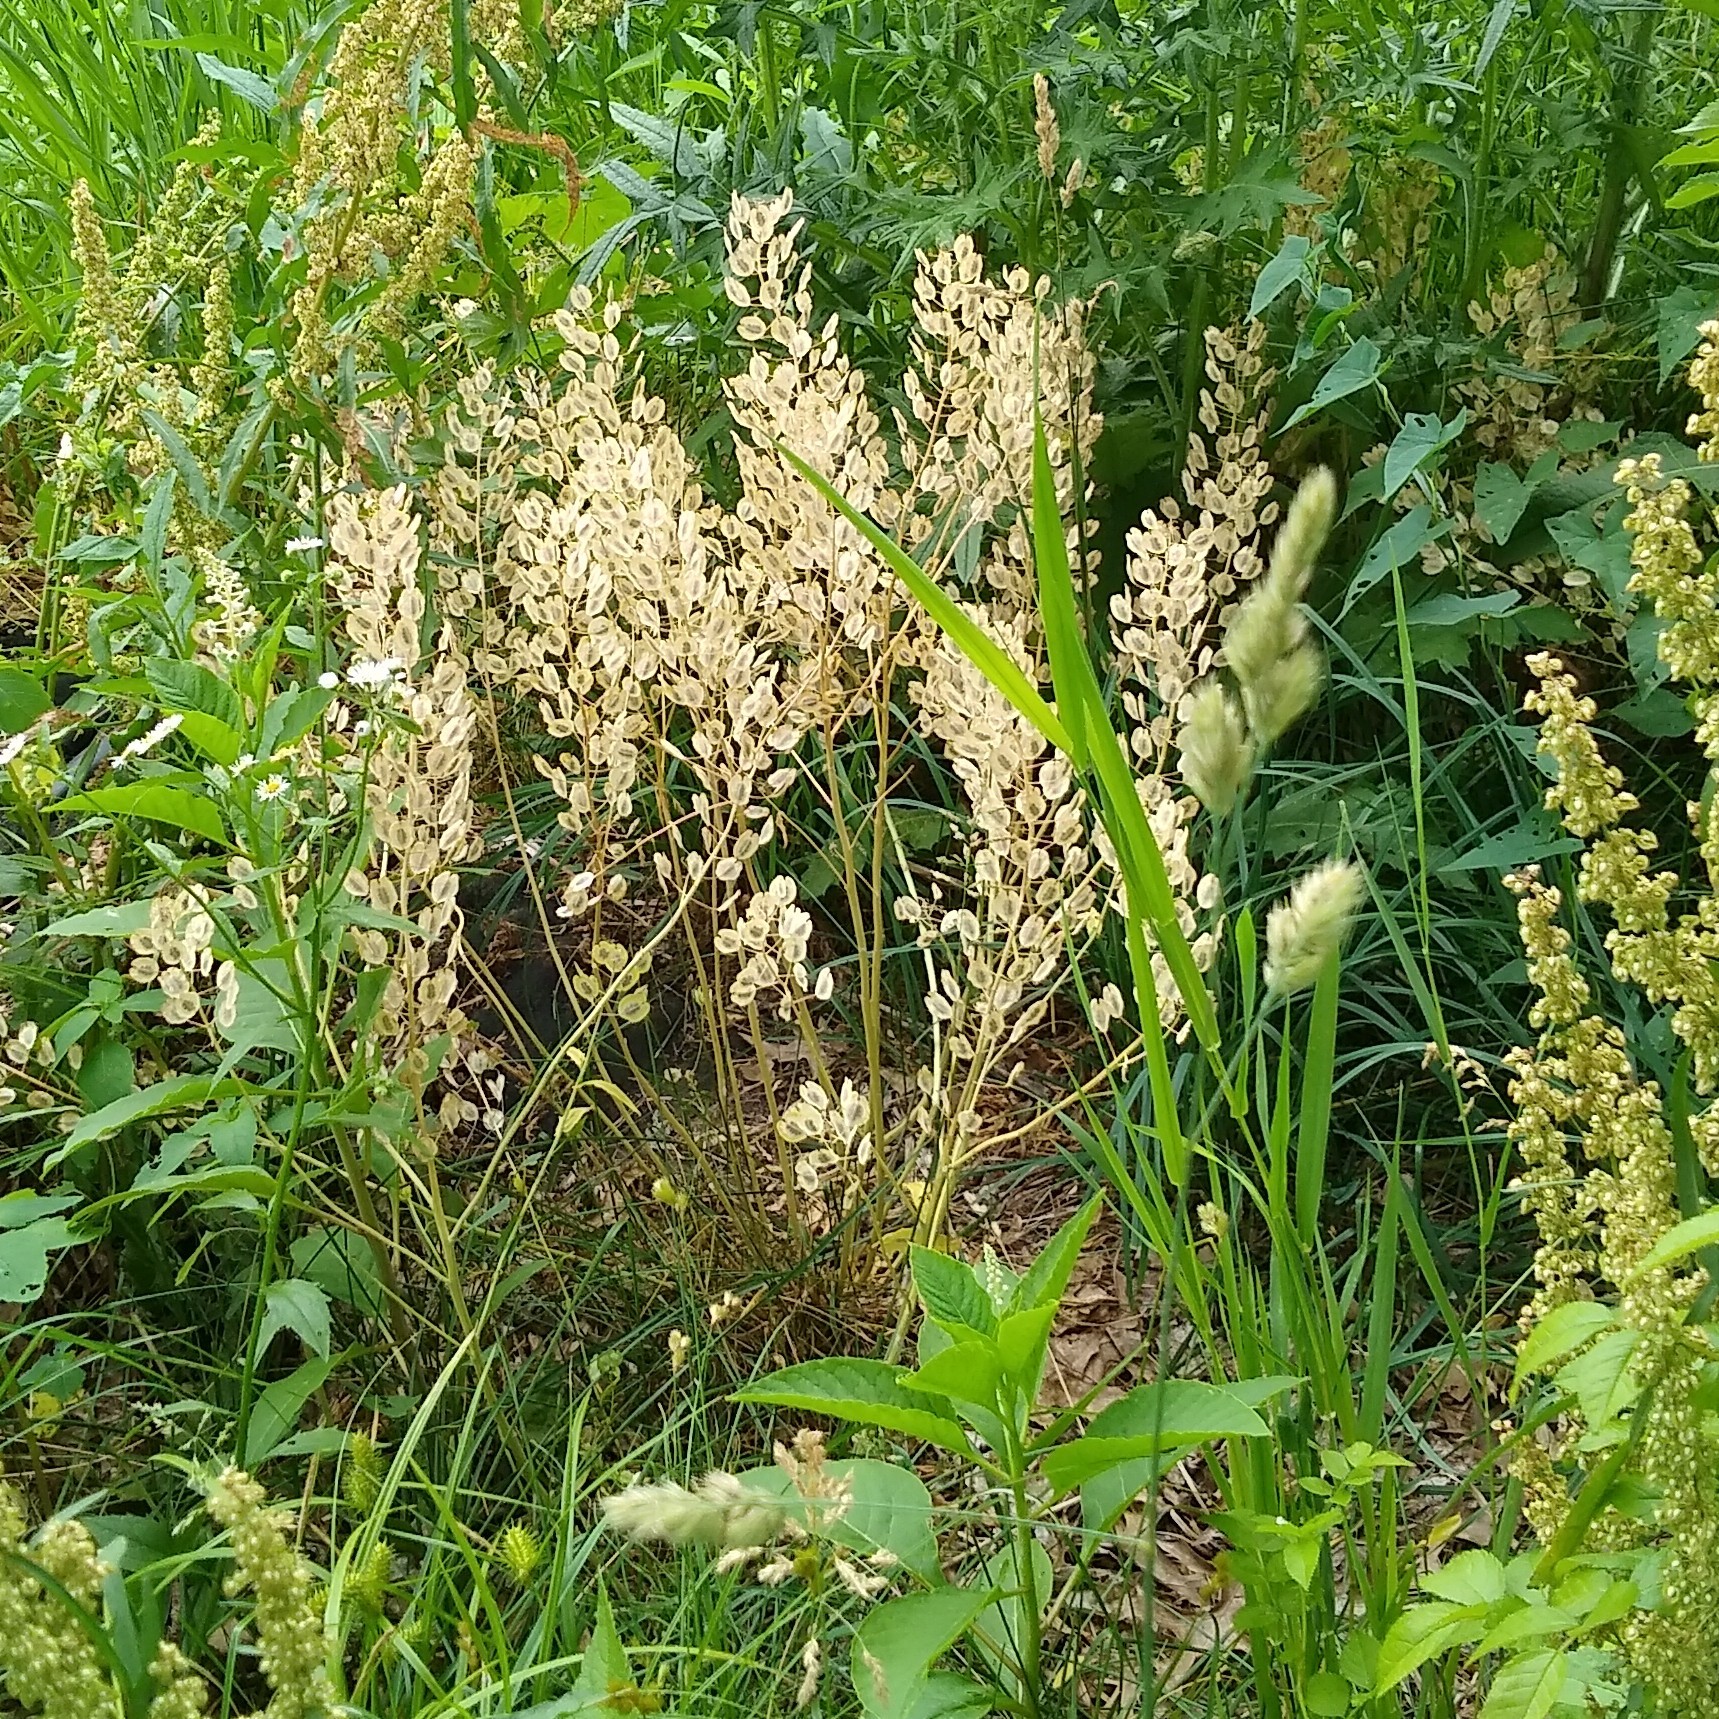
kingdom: Plantae
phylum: Tracheophyta
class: Magnoliopsida
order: Brassicales
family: Brassicaceae
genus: Thlaspi
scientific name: Thlaspi arvense
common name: Field pennycress
